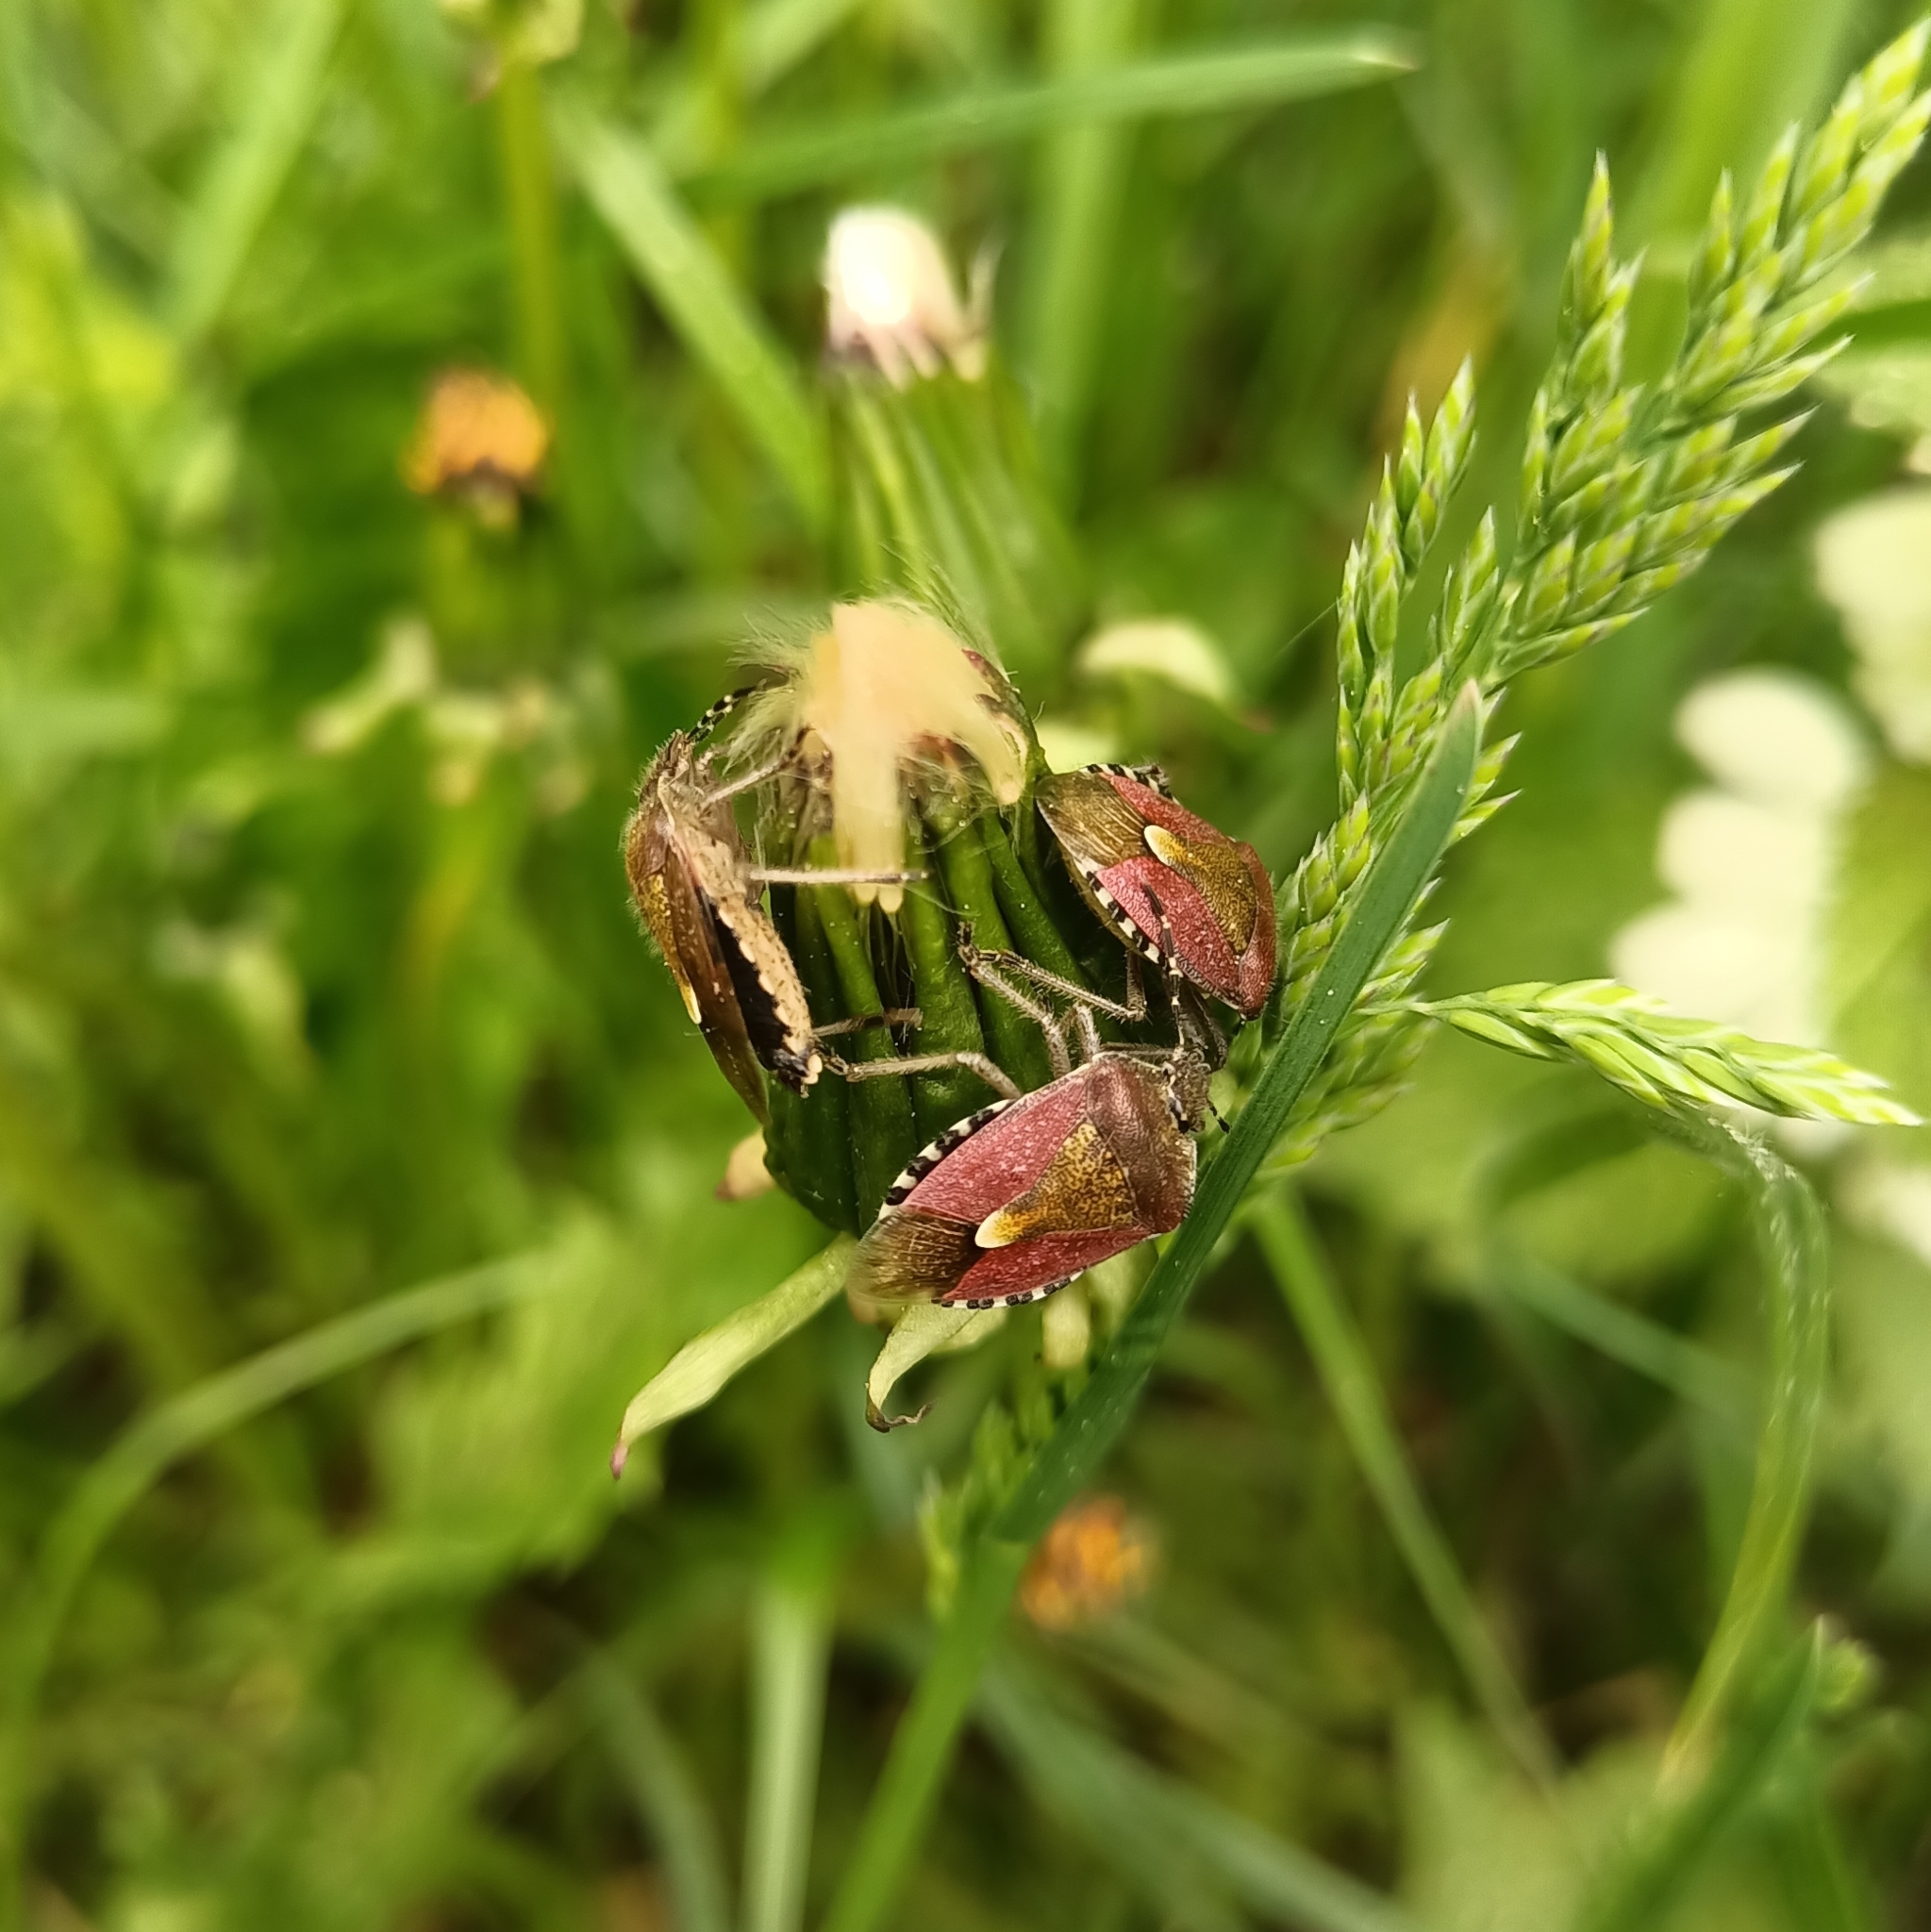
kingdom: Animalia
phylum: Arthropoda
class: Insecta
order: Hemiptera
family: Pentatomidae
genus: Dolycoris
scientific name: Dolycoris baccarum
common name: Sloe bug
